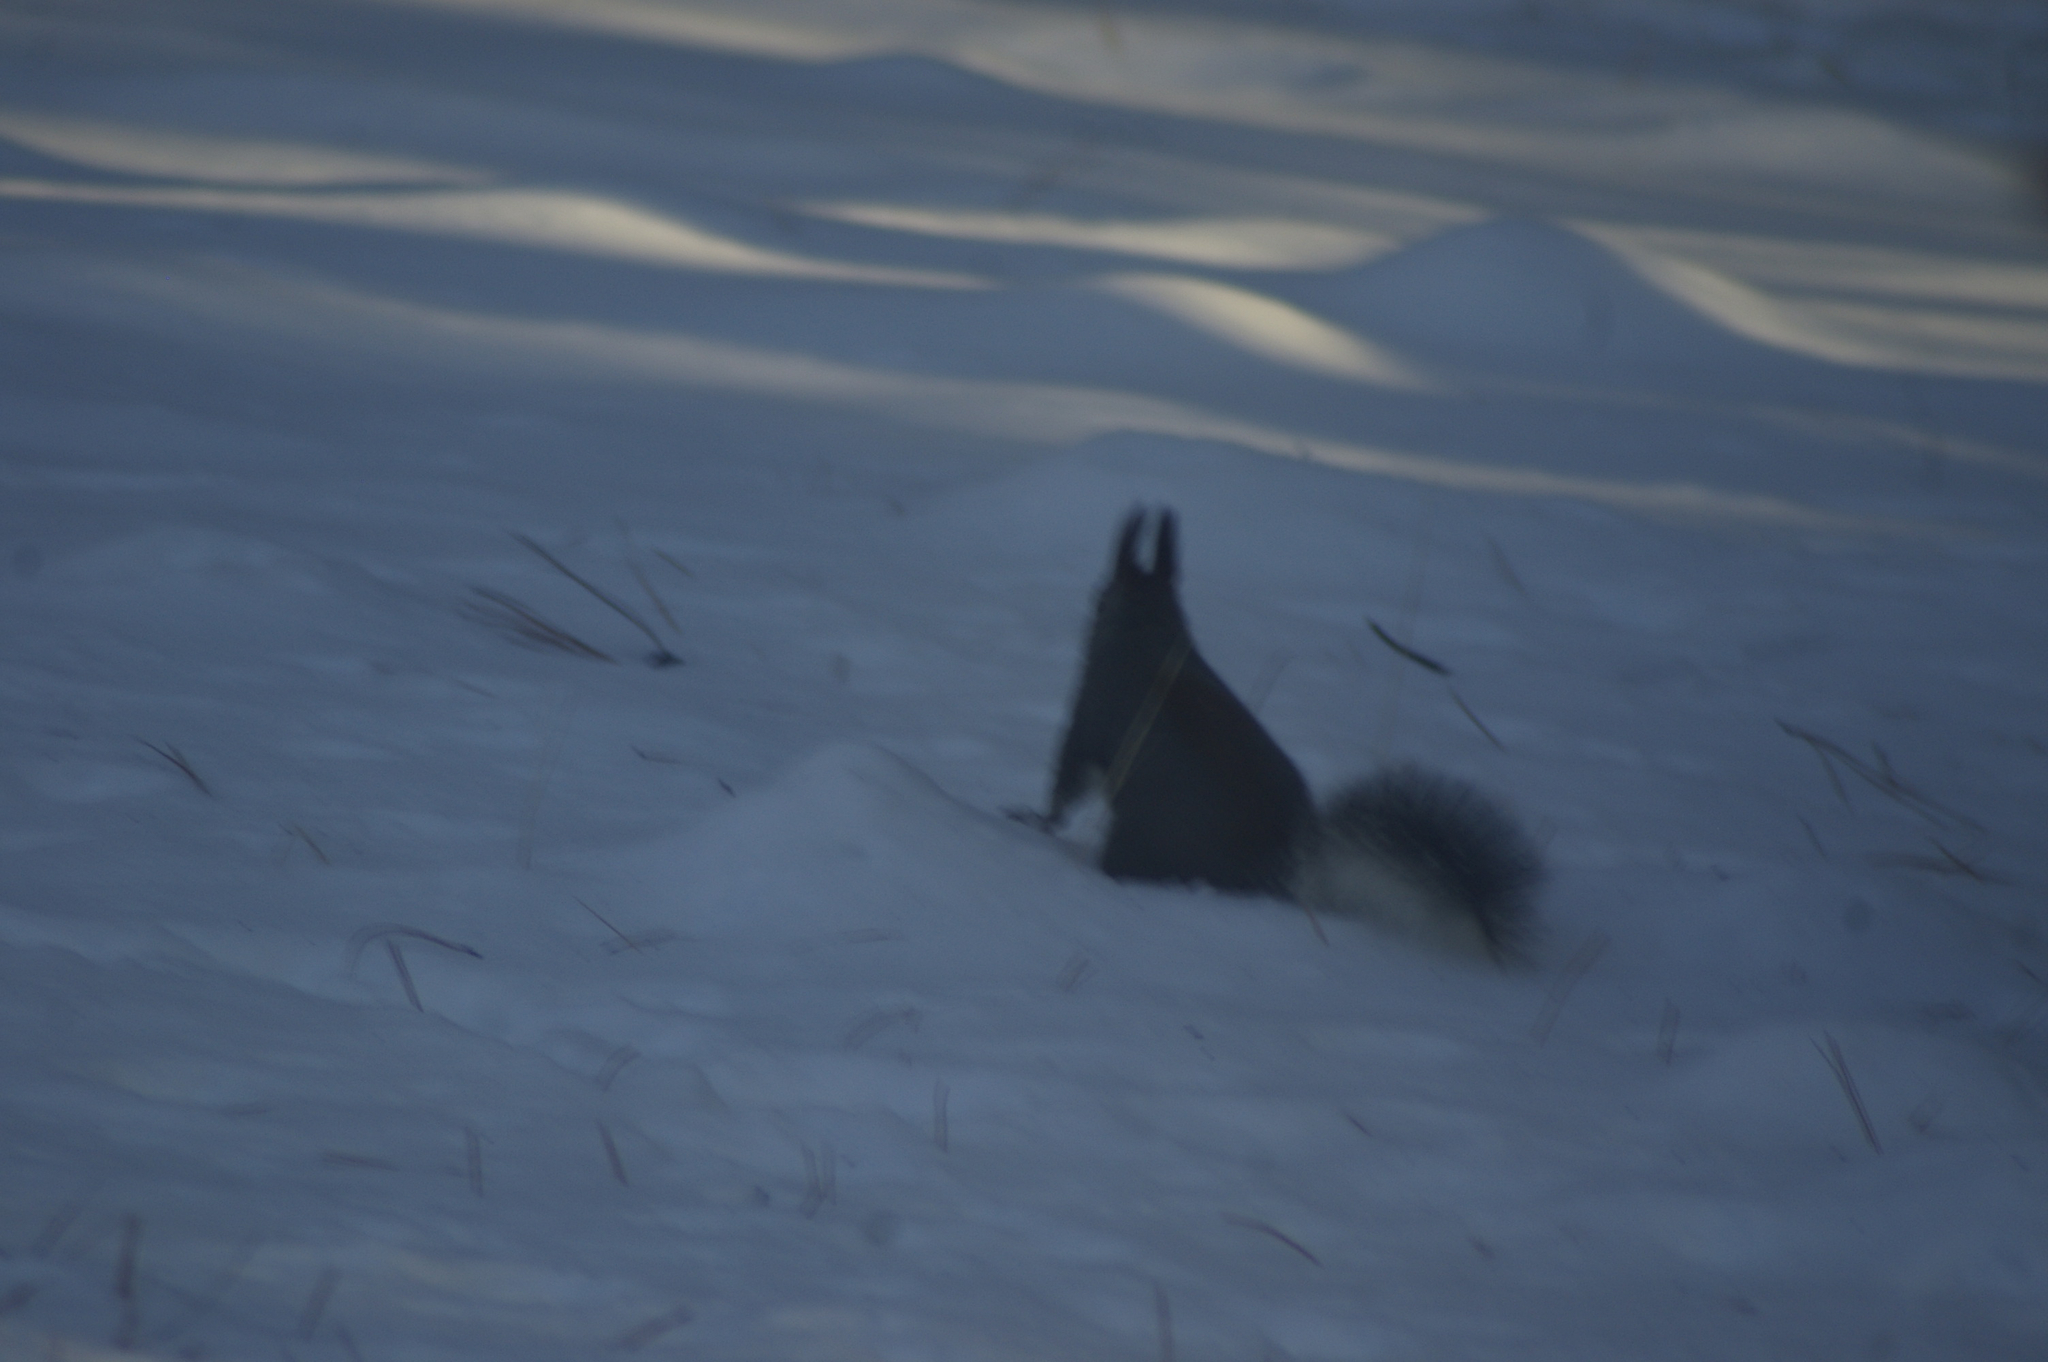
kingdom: Animalia
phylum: Chordata
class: Mammalia
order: Rodentia
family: Sciuridae
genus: Sciurus
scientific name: Sciurus aberti
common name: Abert's squirrel
